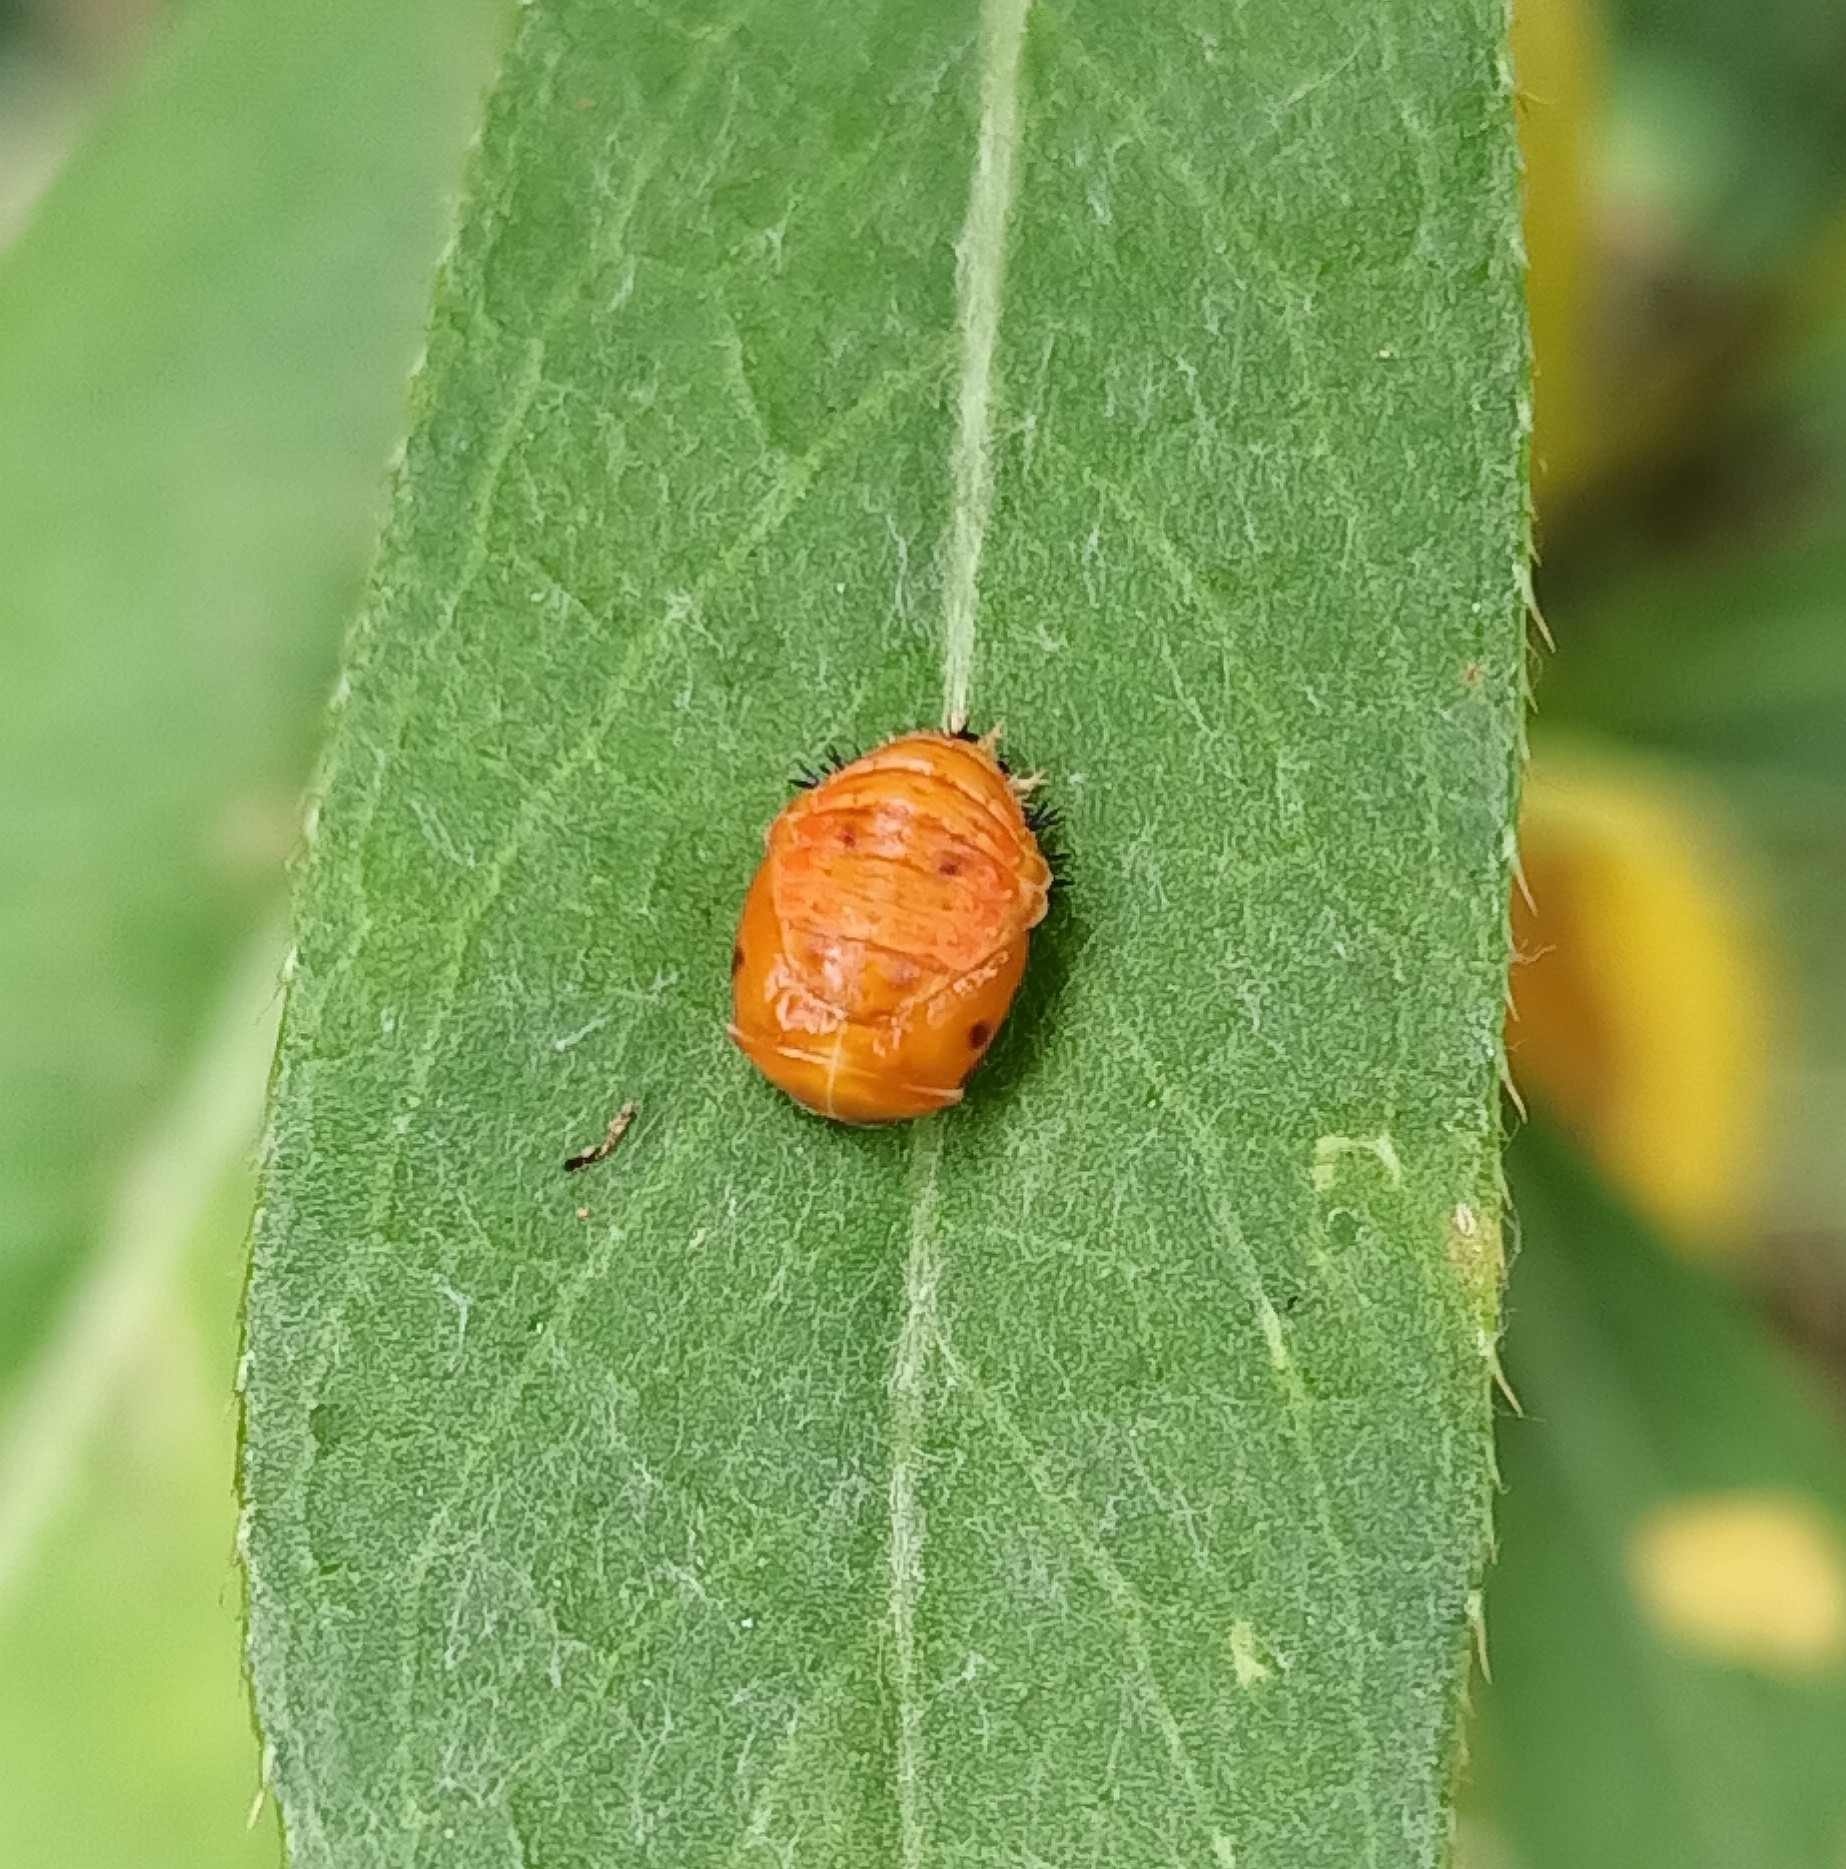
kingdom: Animalia
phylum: Arthropoda
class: Insecta
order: Coleoptera
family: Coccinellidae
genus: Harmonia
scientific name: Harmonia axyridis
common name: Harlequin ladybird
